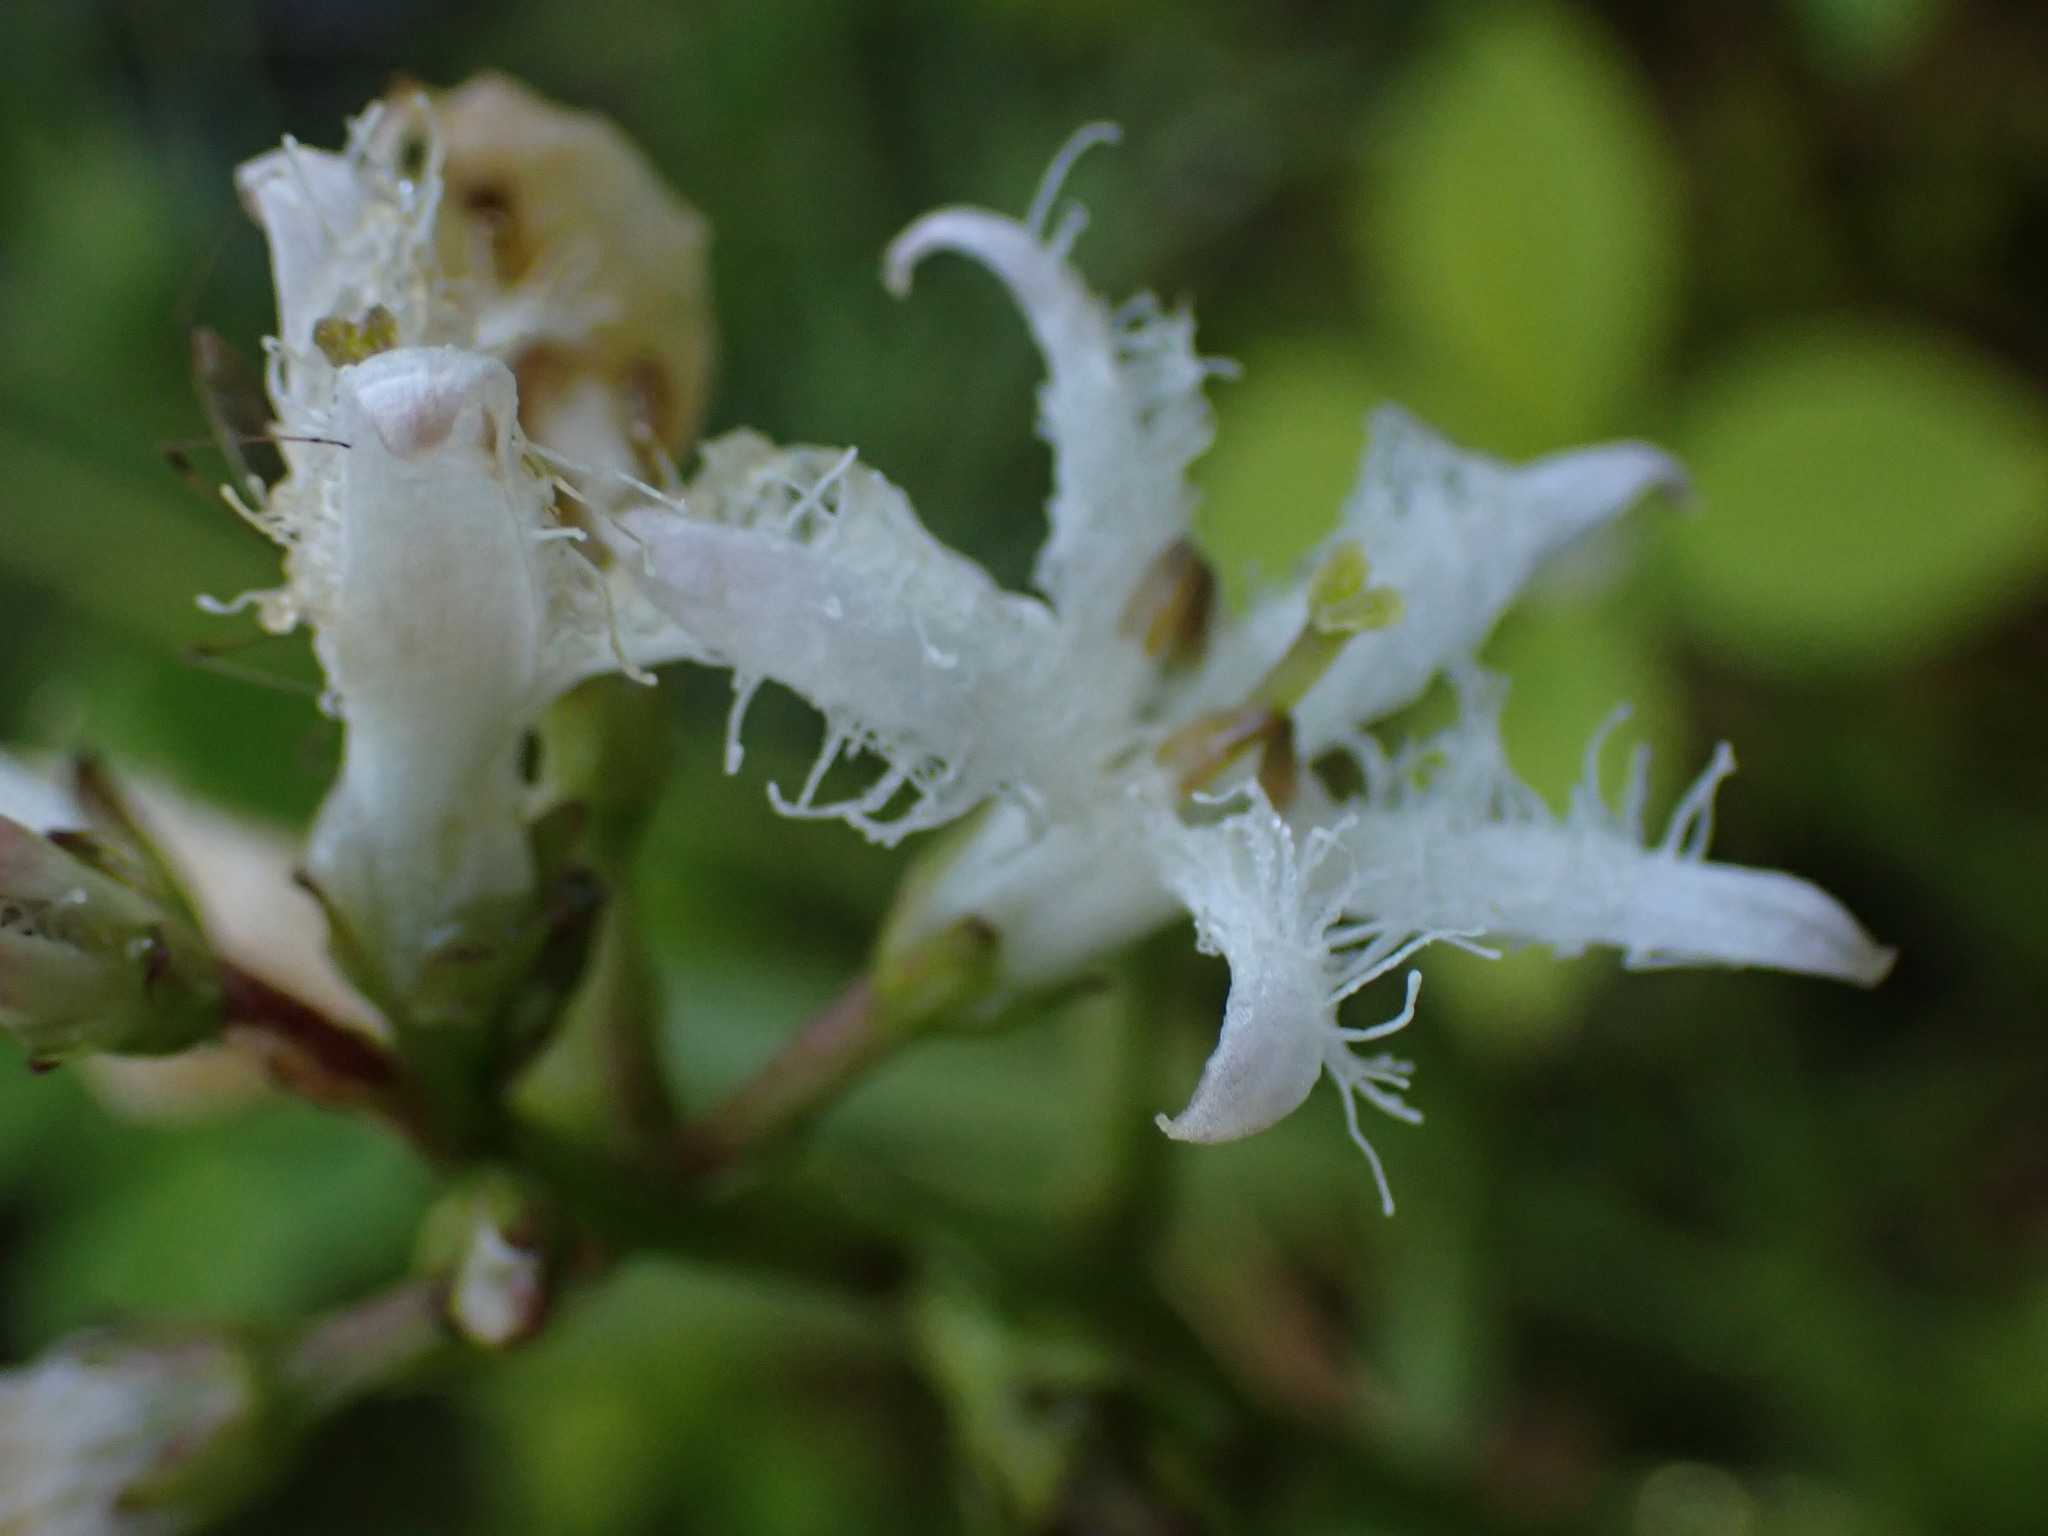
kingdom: Plantae
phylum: Tracheophyta
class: Magnoliopsida
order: Asterales
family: Menyanthaceae
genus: Menyanthes
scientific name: Menyanthes trifoliata
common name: Bogbean
